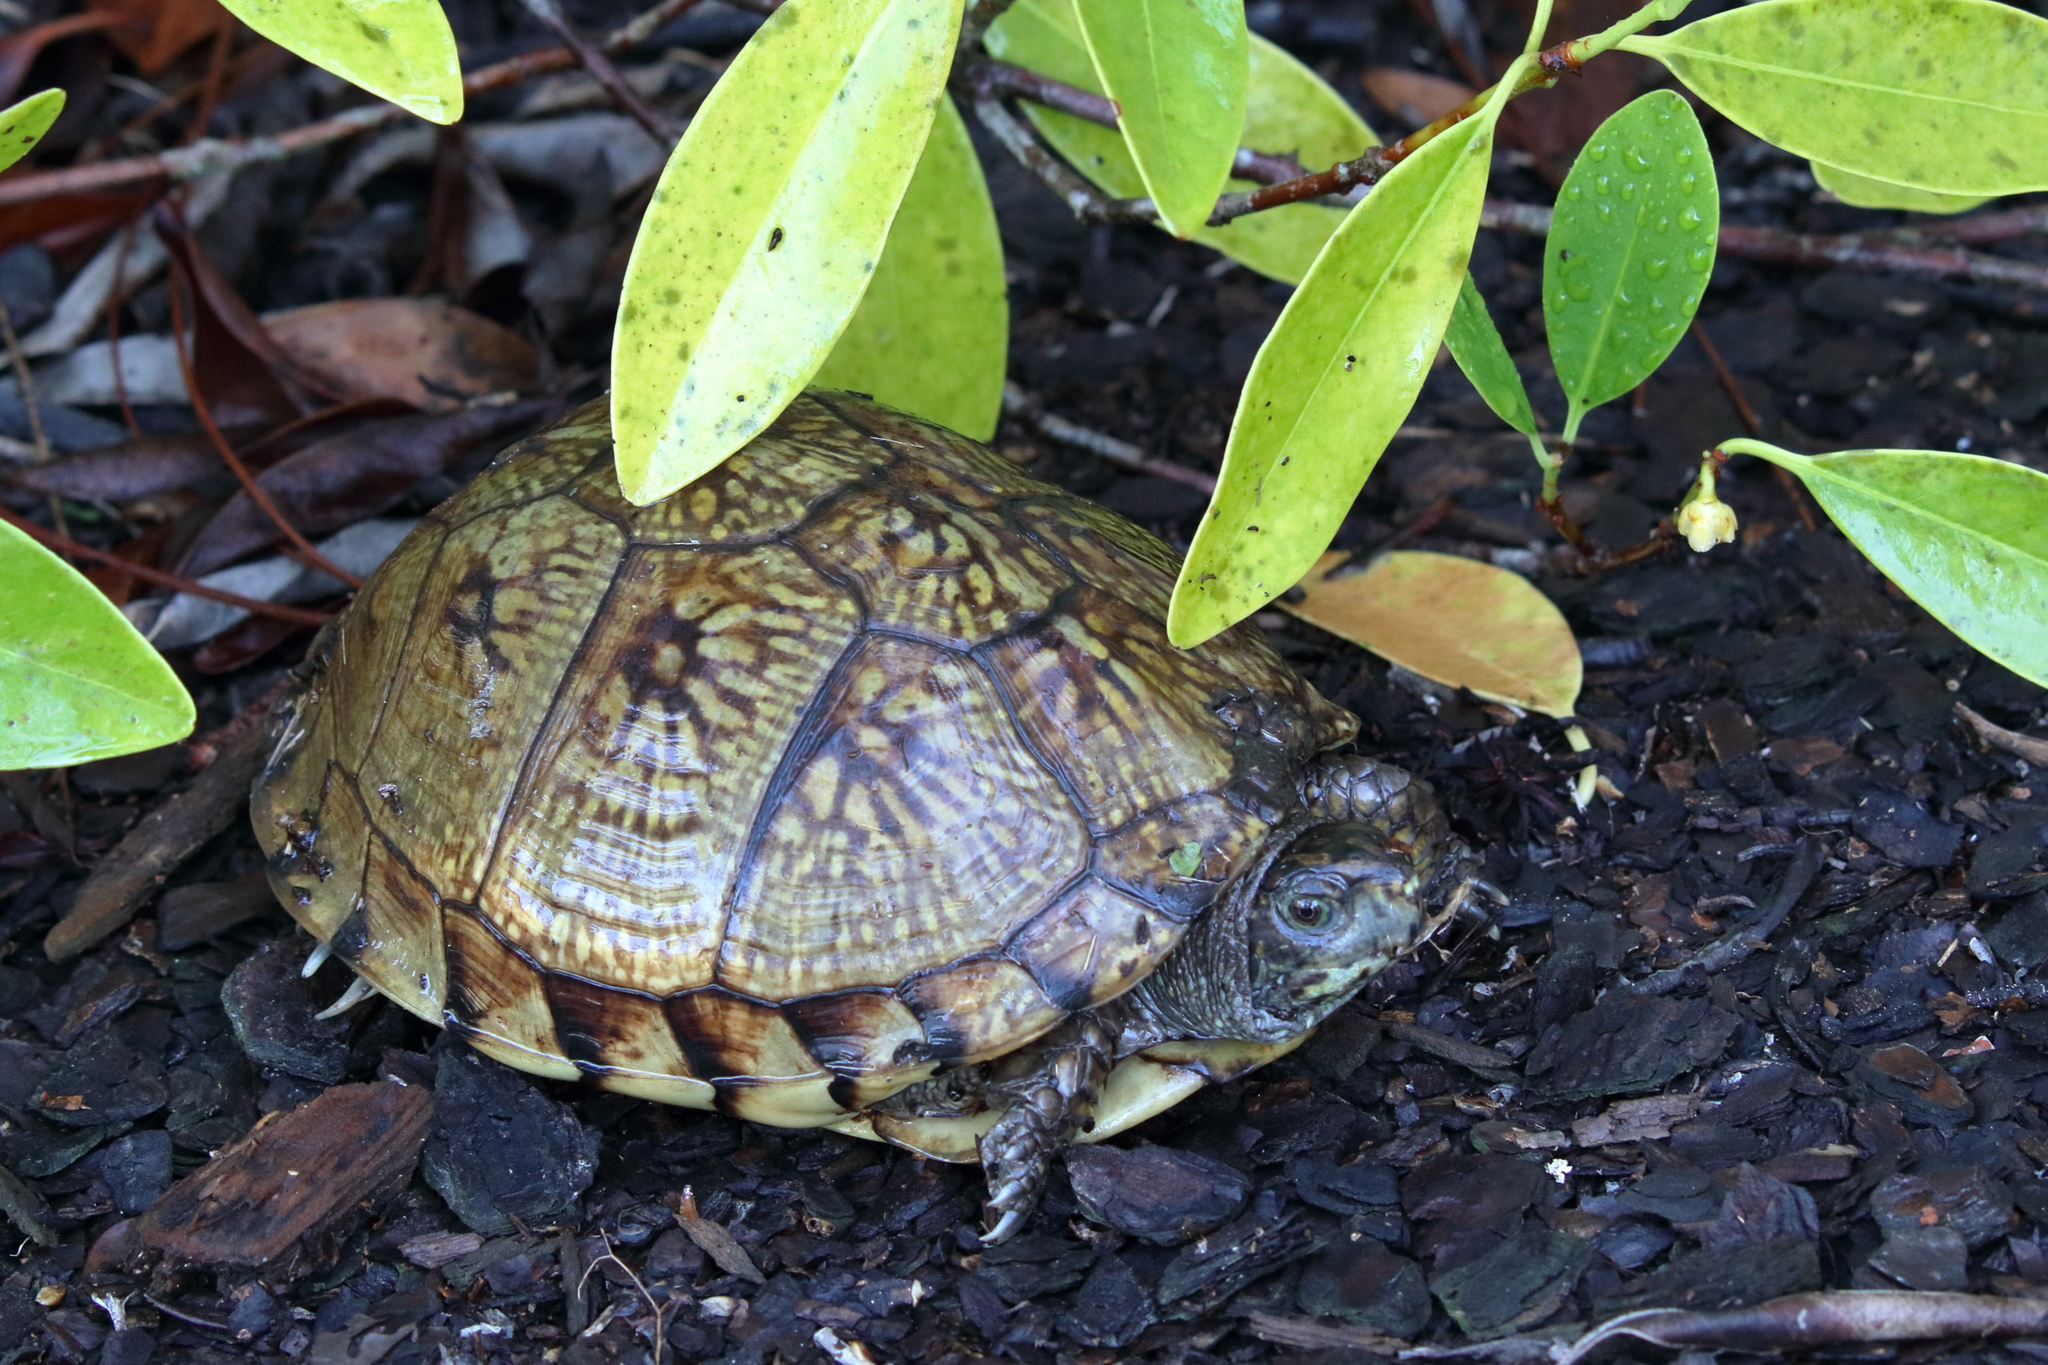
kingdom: Animalia
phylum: Chordata
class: Testudines
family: Emydidae
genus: Terrapene
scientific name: Terrapene carolina
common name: Common box turtle
